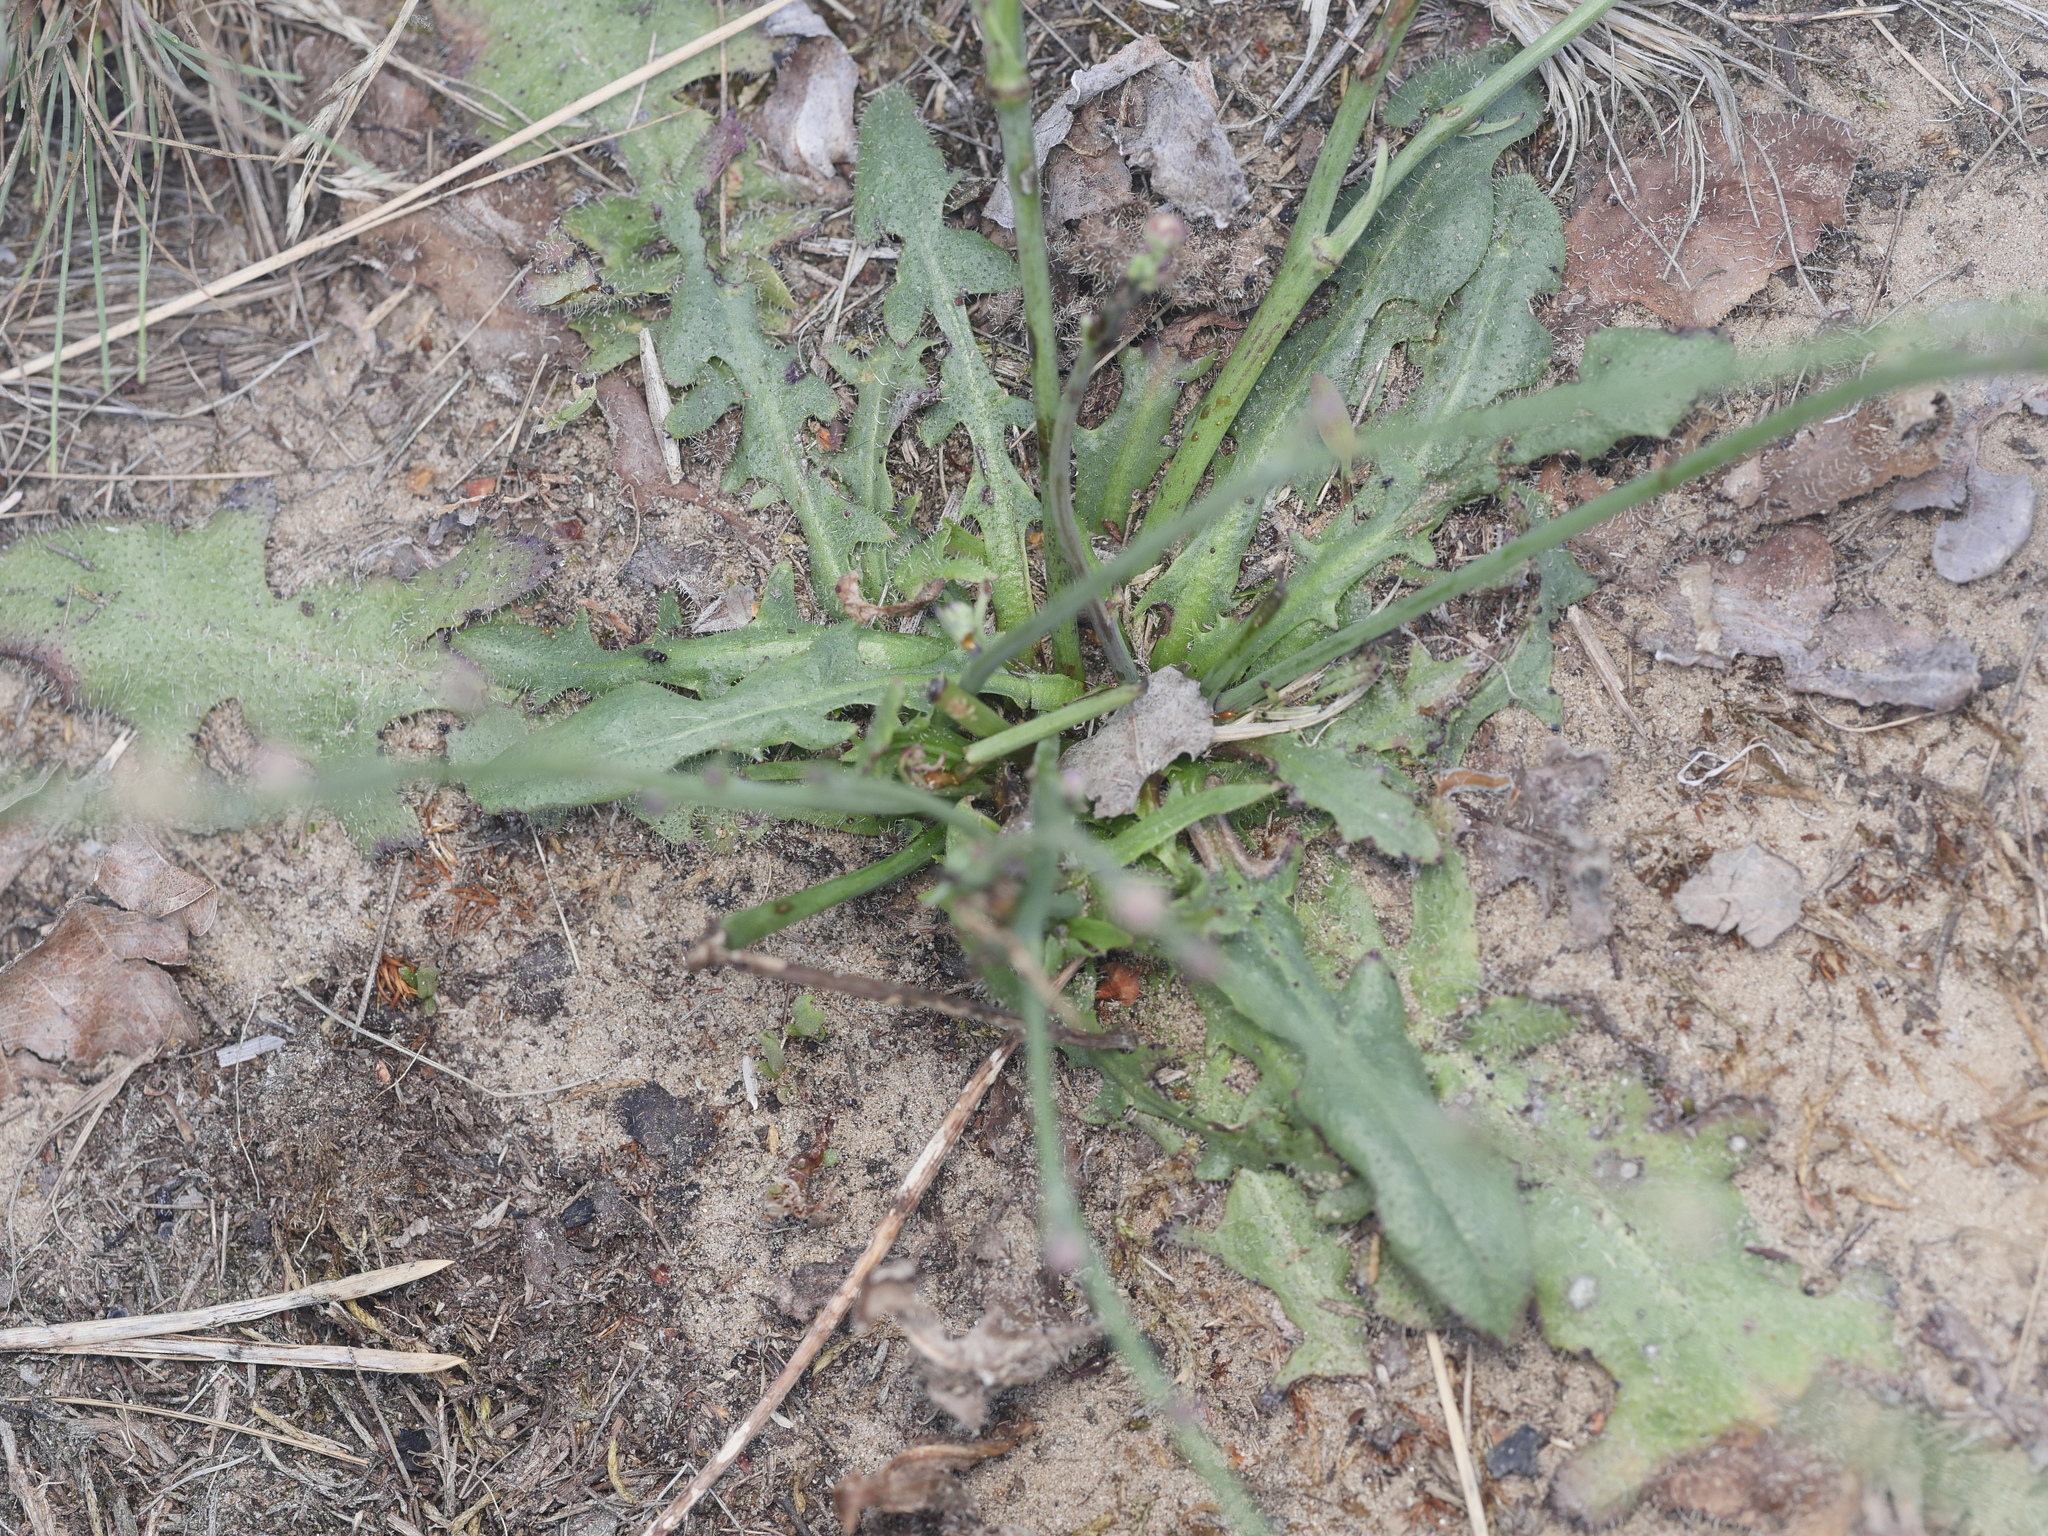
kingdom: Plantae
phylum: Tracheophyta
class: Magnoliopsida
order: Asterales
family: Asteraceae
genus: Hypochaeris
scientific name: Hypochaeris radicata
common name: Flatweed
